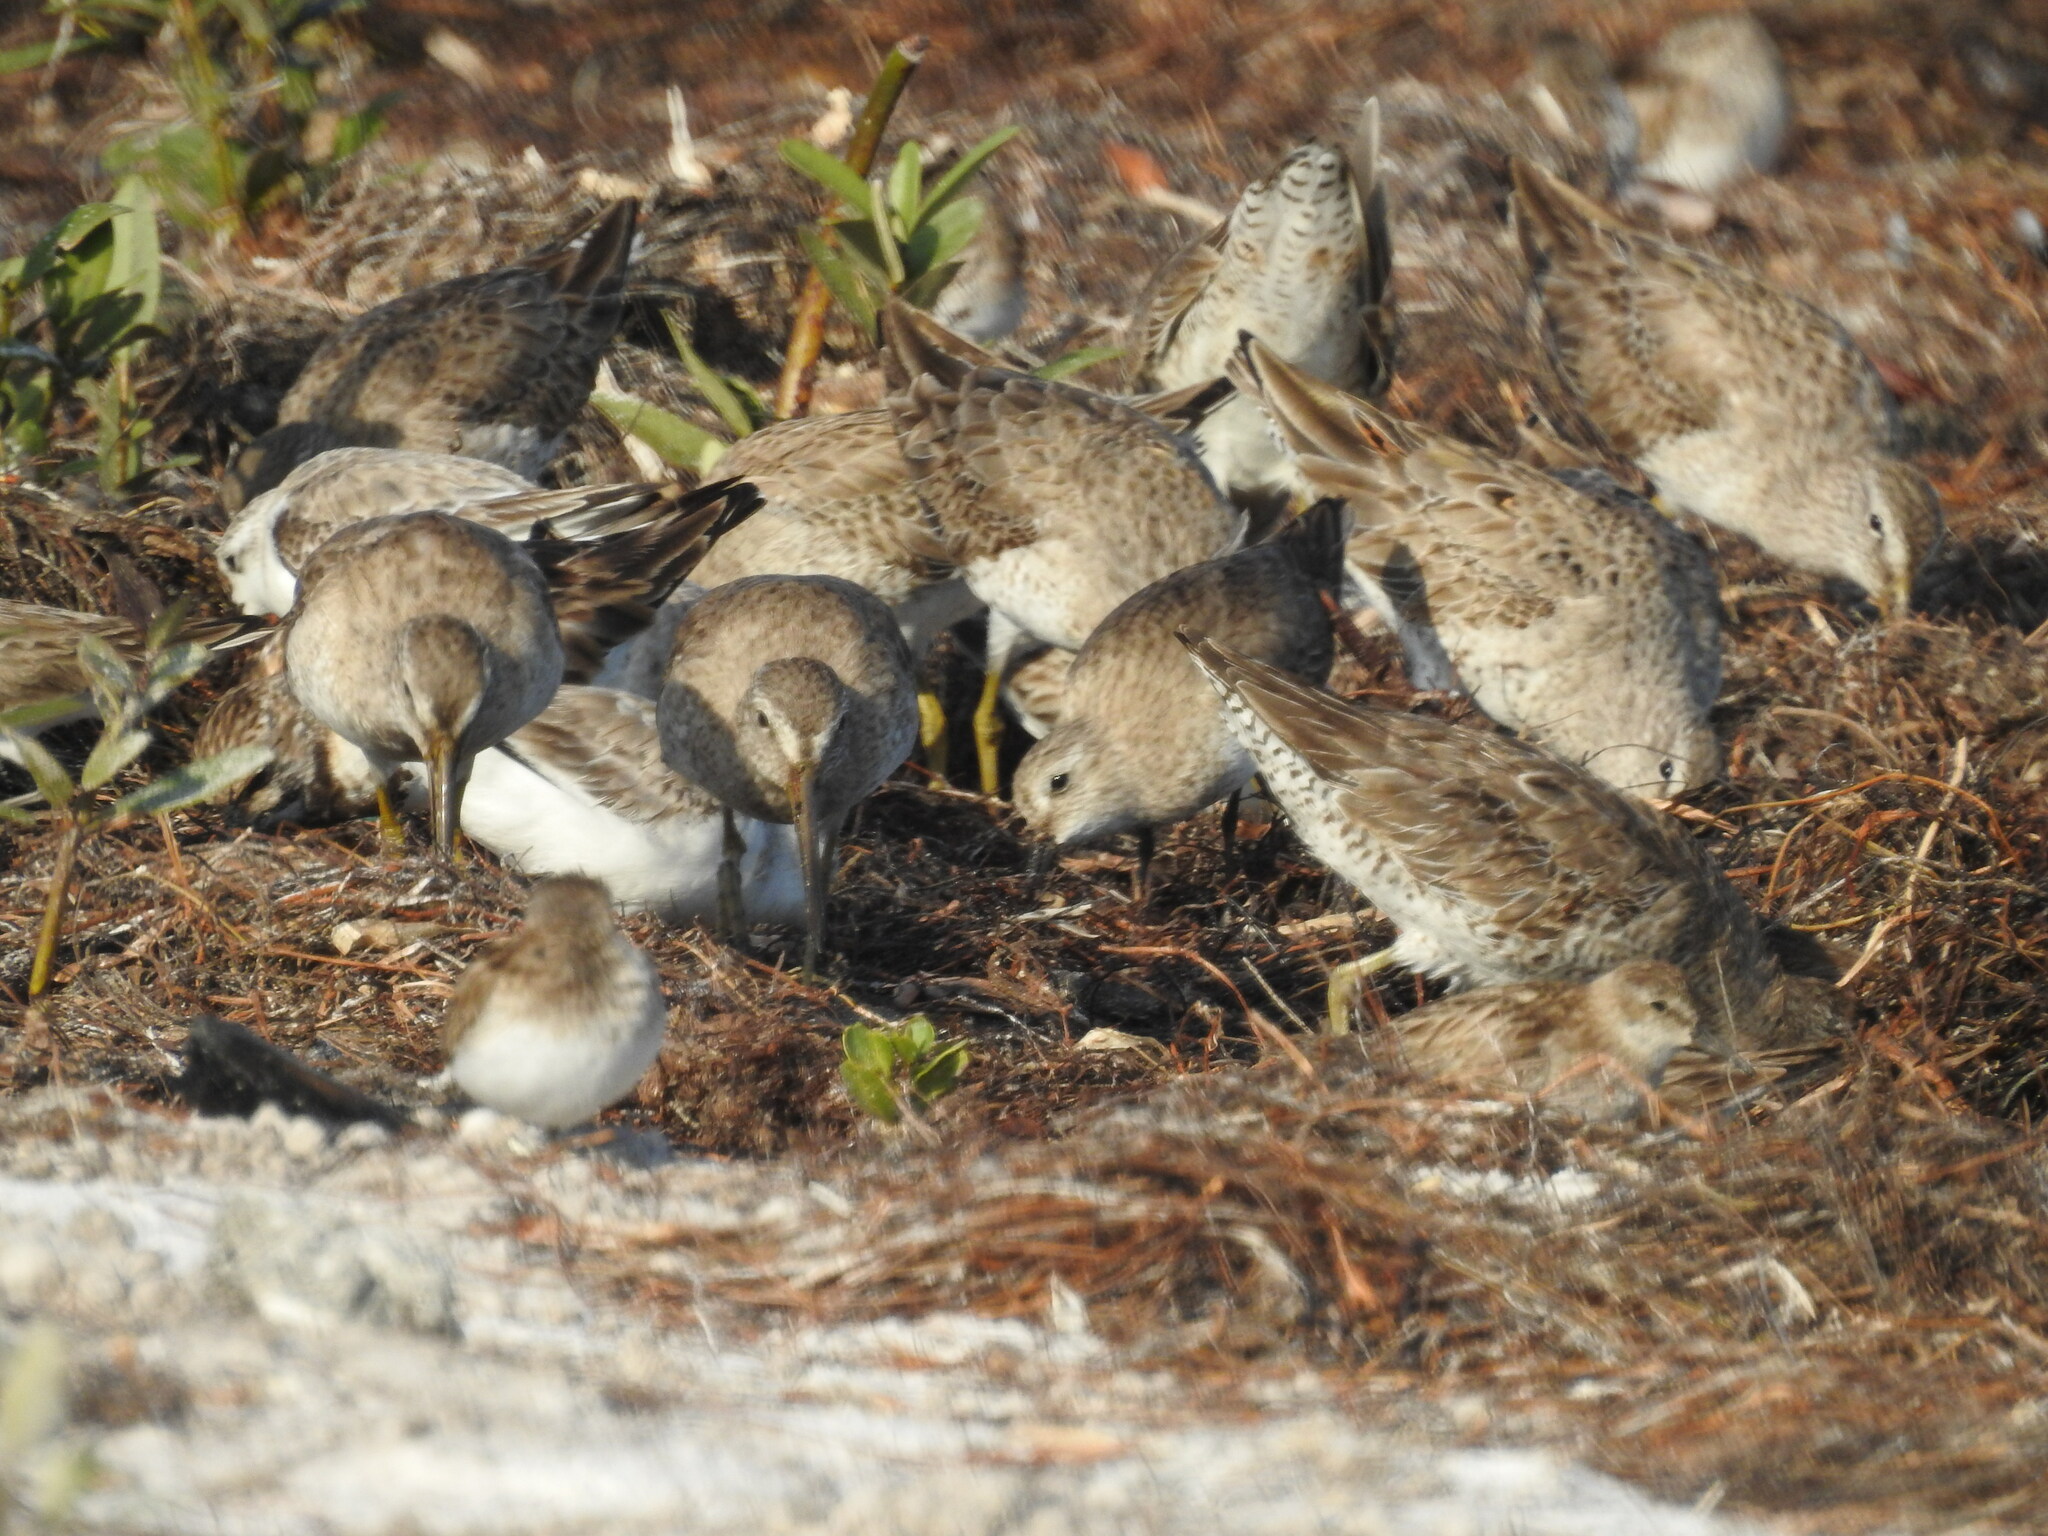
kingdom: Animalia
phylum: Chordata
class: Aves
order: Charadriiformes
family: Scolopacidae
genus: Limnodromus
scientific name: Limnodromus griseus
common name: Short-billed dowitcher
